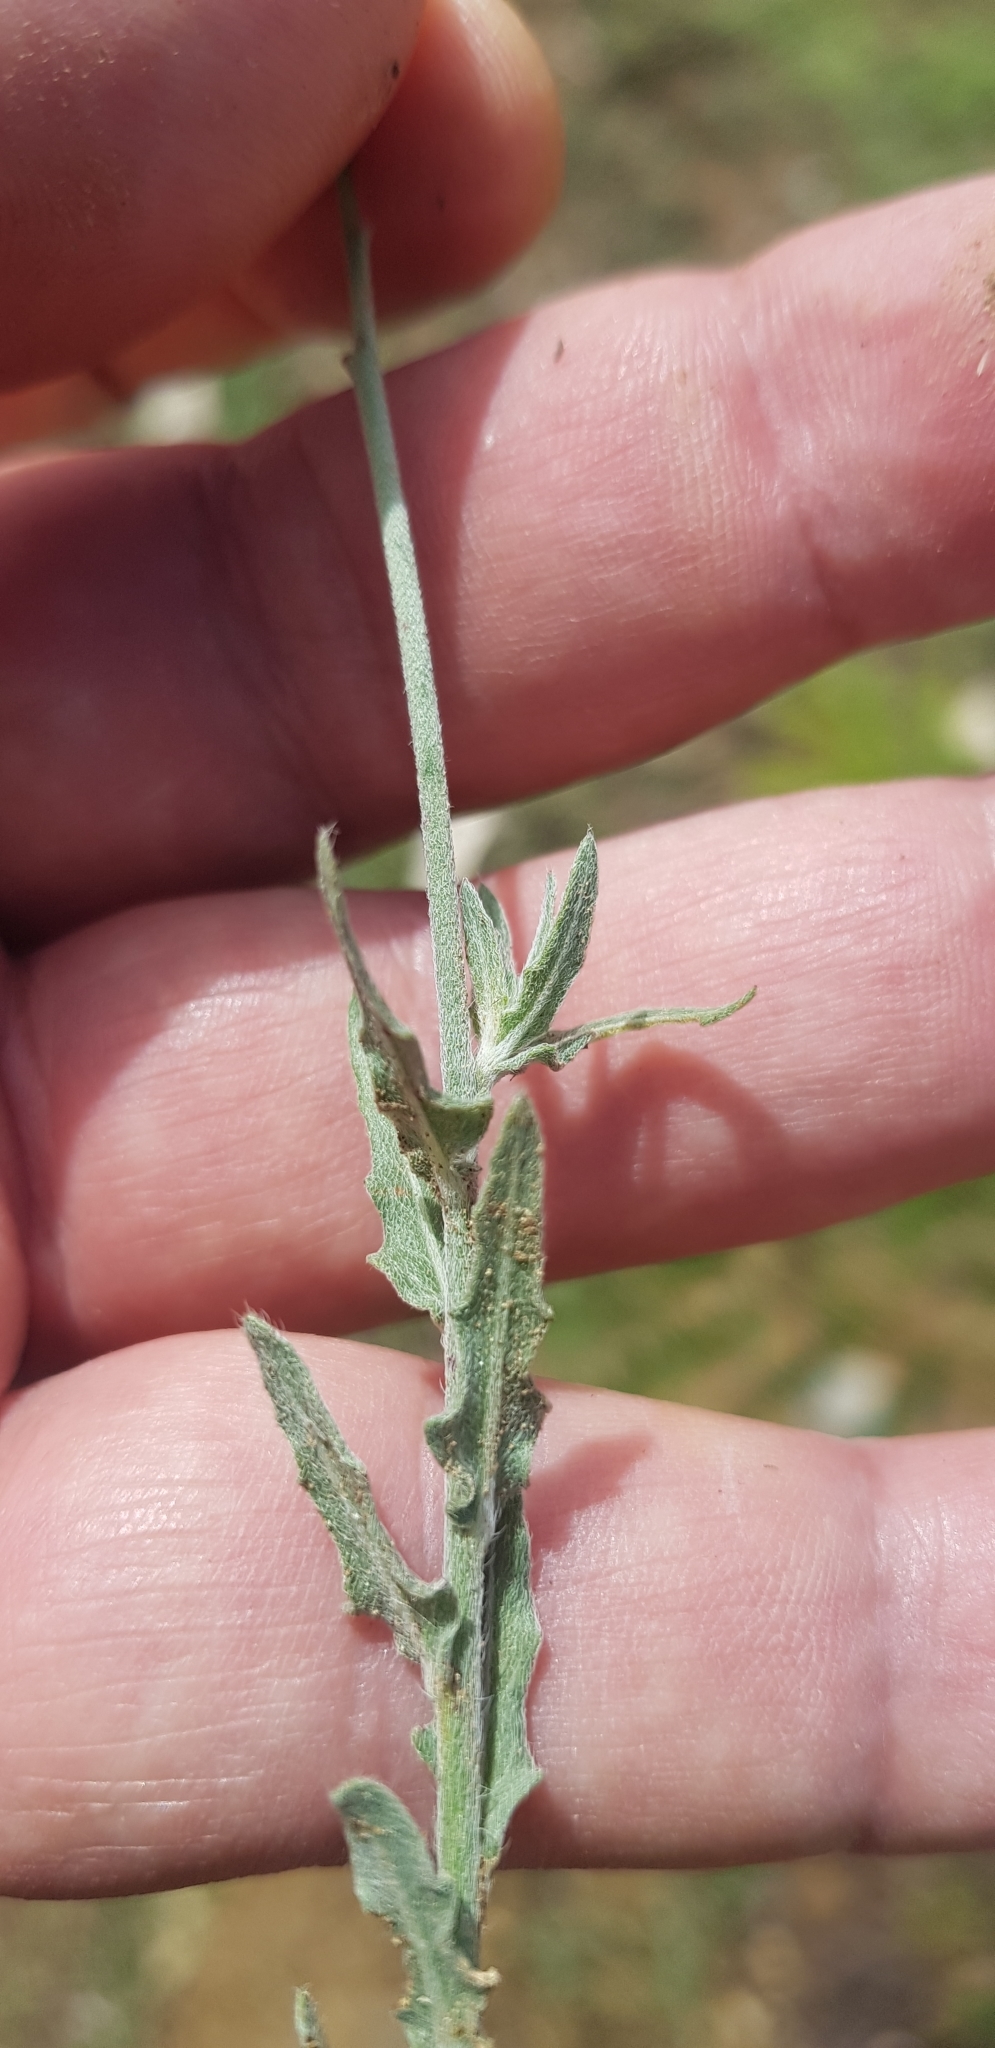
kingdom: Plantae
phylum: Tracheophyta
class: Magnoliopsida
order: Myrtales
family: Onagraceae
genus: Oenothera
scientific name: Oenothera suffrutescens
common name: Scarlet beeblossom
